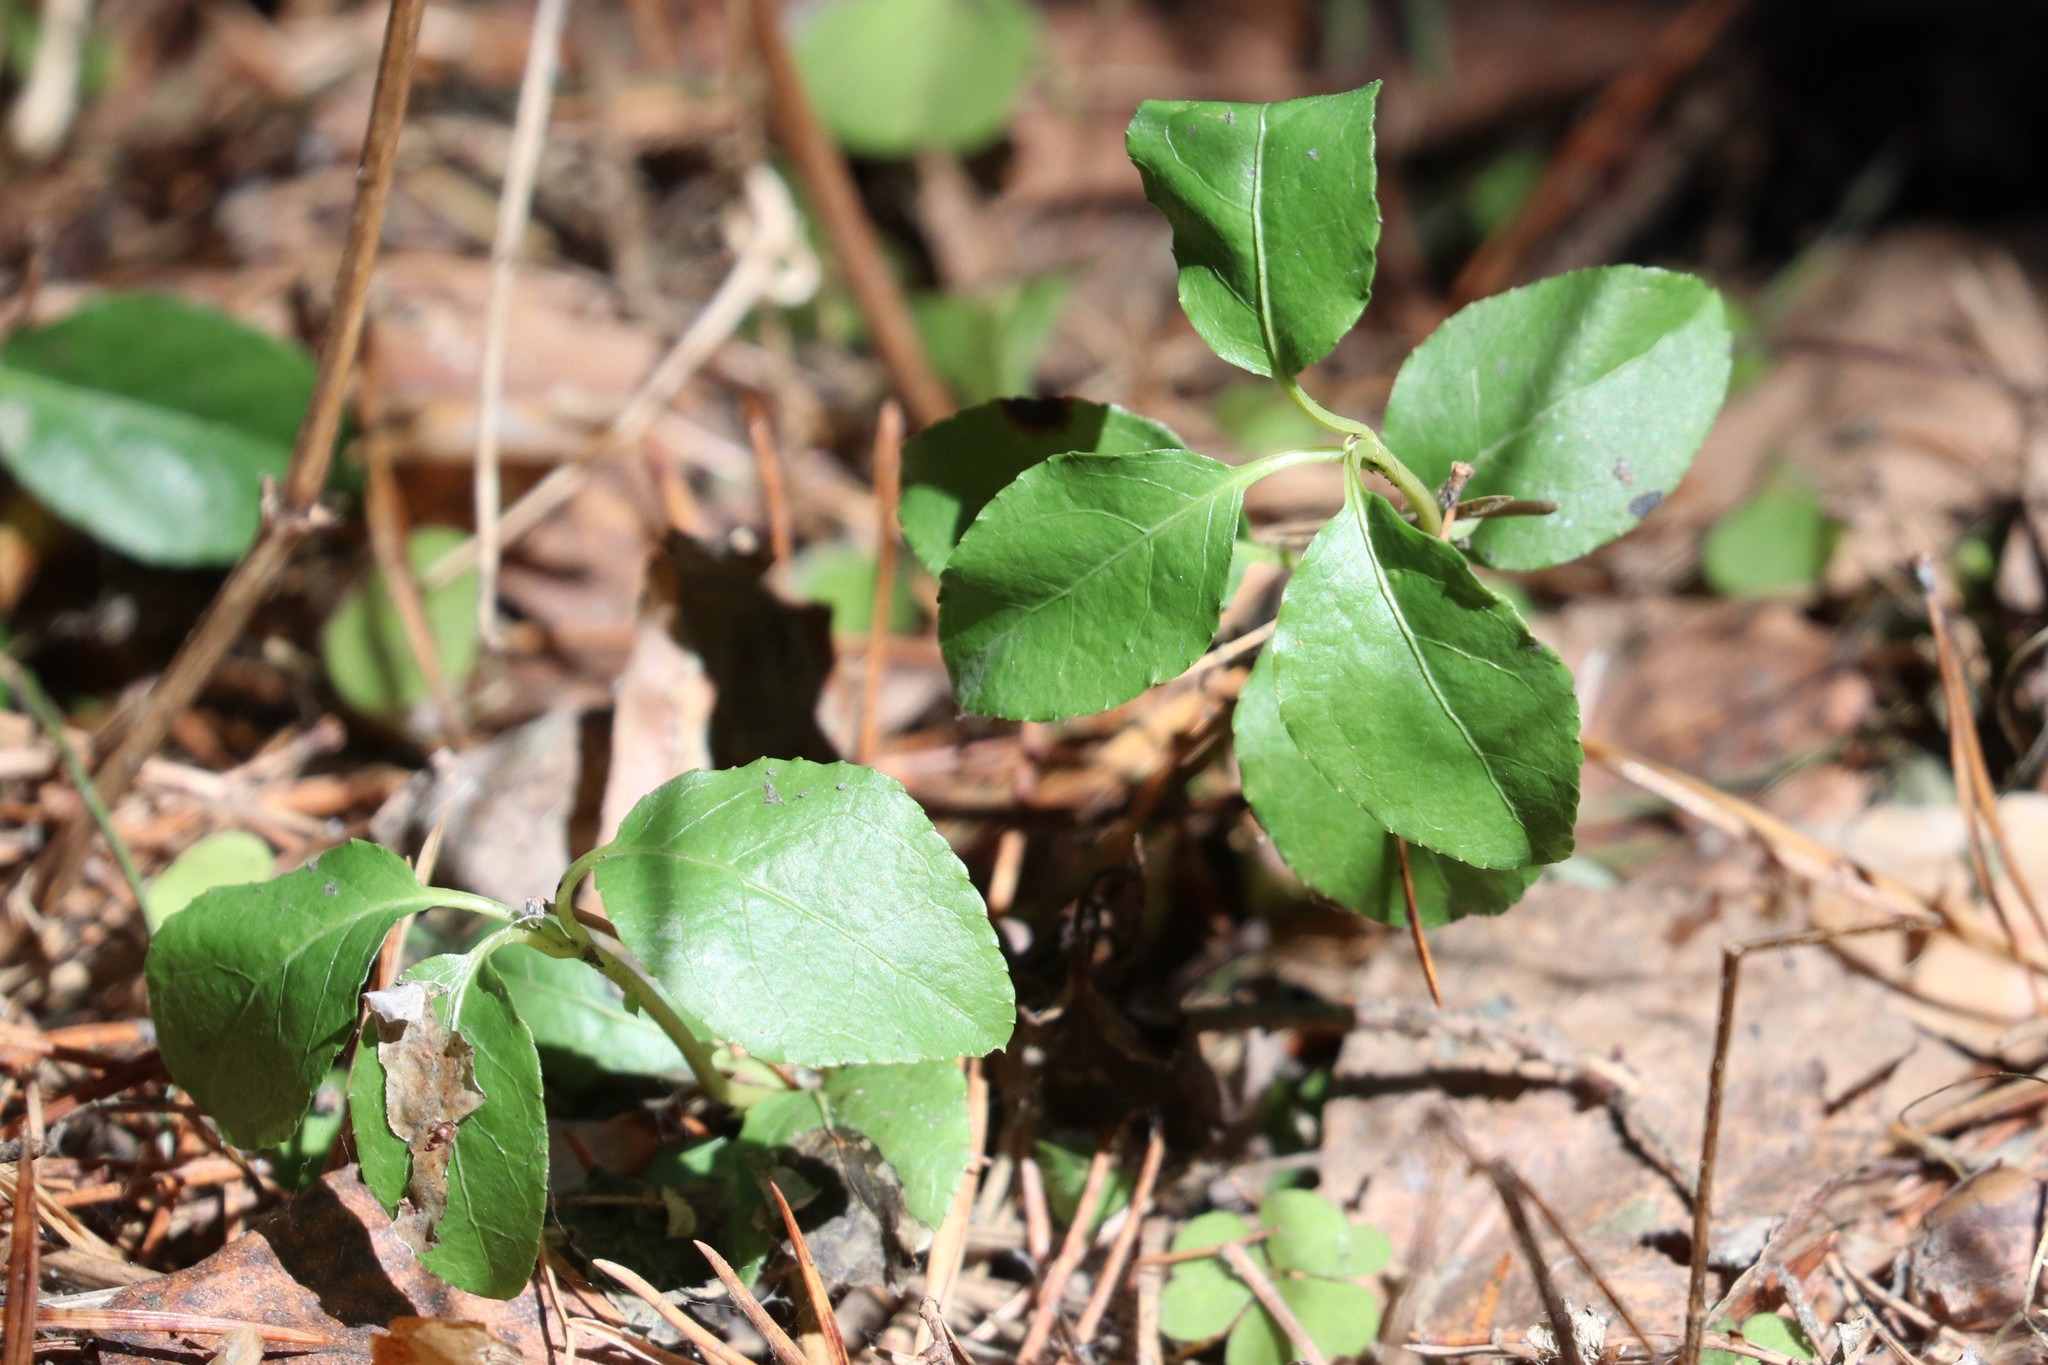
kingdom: Plantae
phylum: Tracheophyta
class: Magnoliopsida
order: Ericales
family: Ericaceae
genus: Orthilia
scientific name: Orthilia secunda
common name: One-sided orthilia
